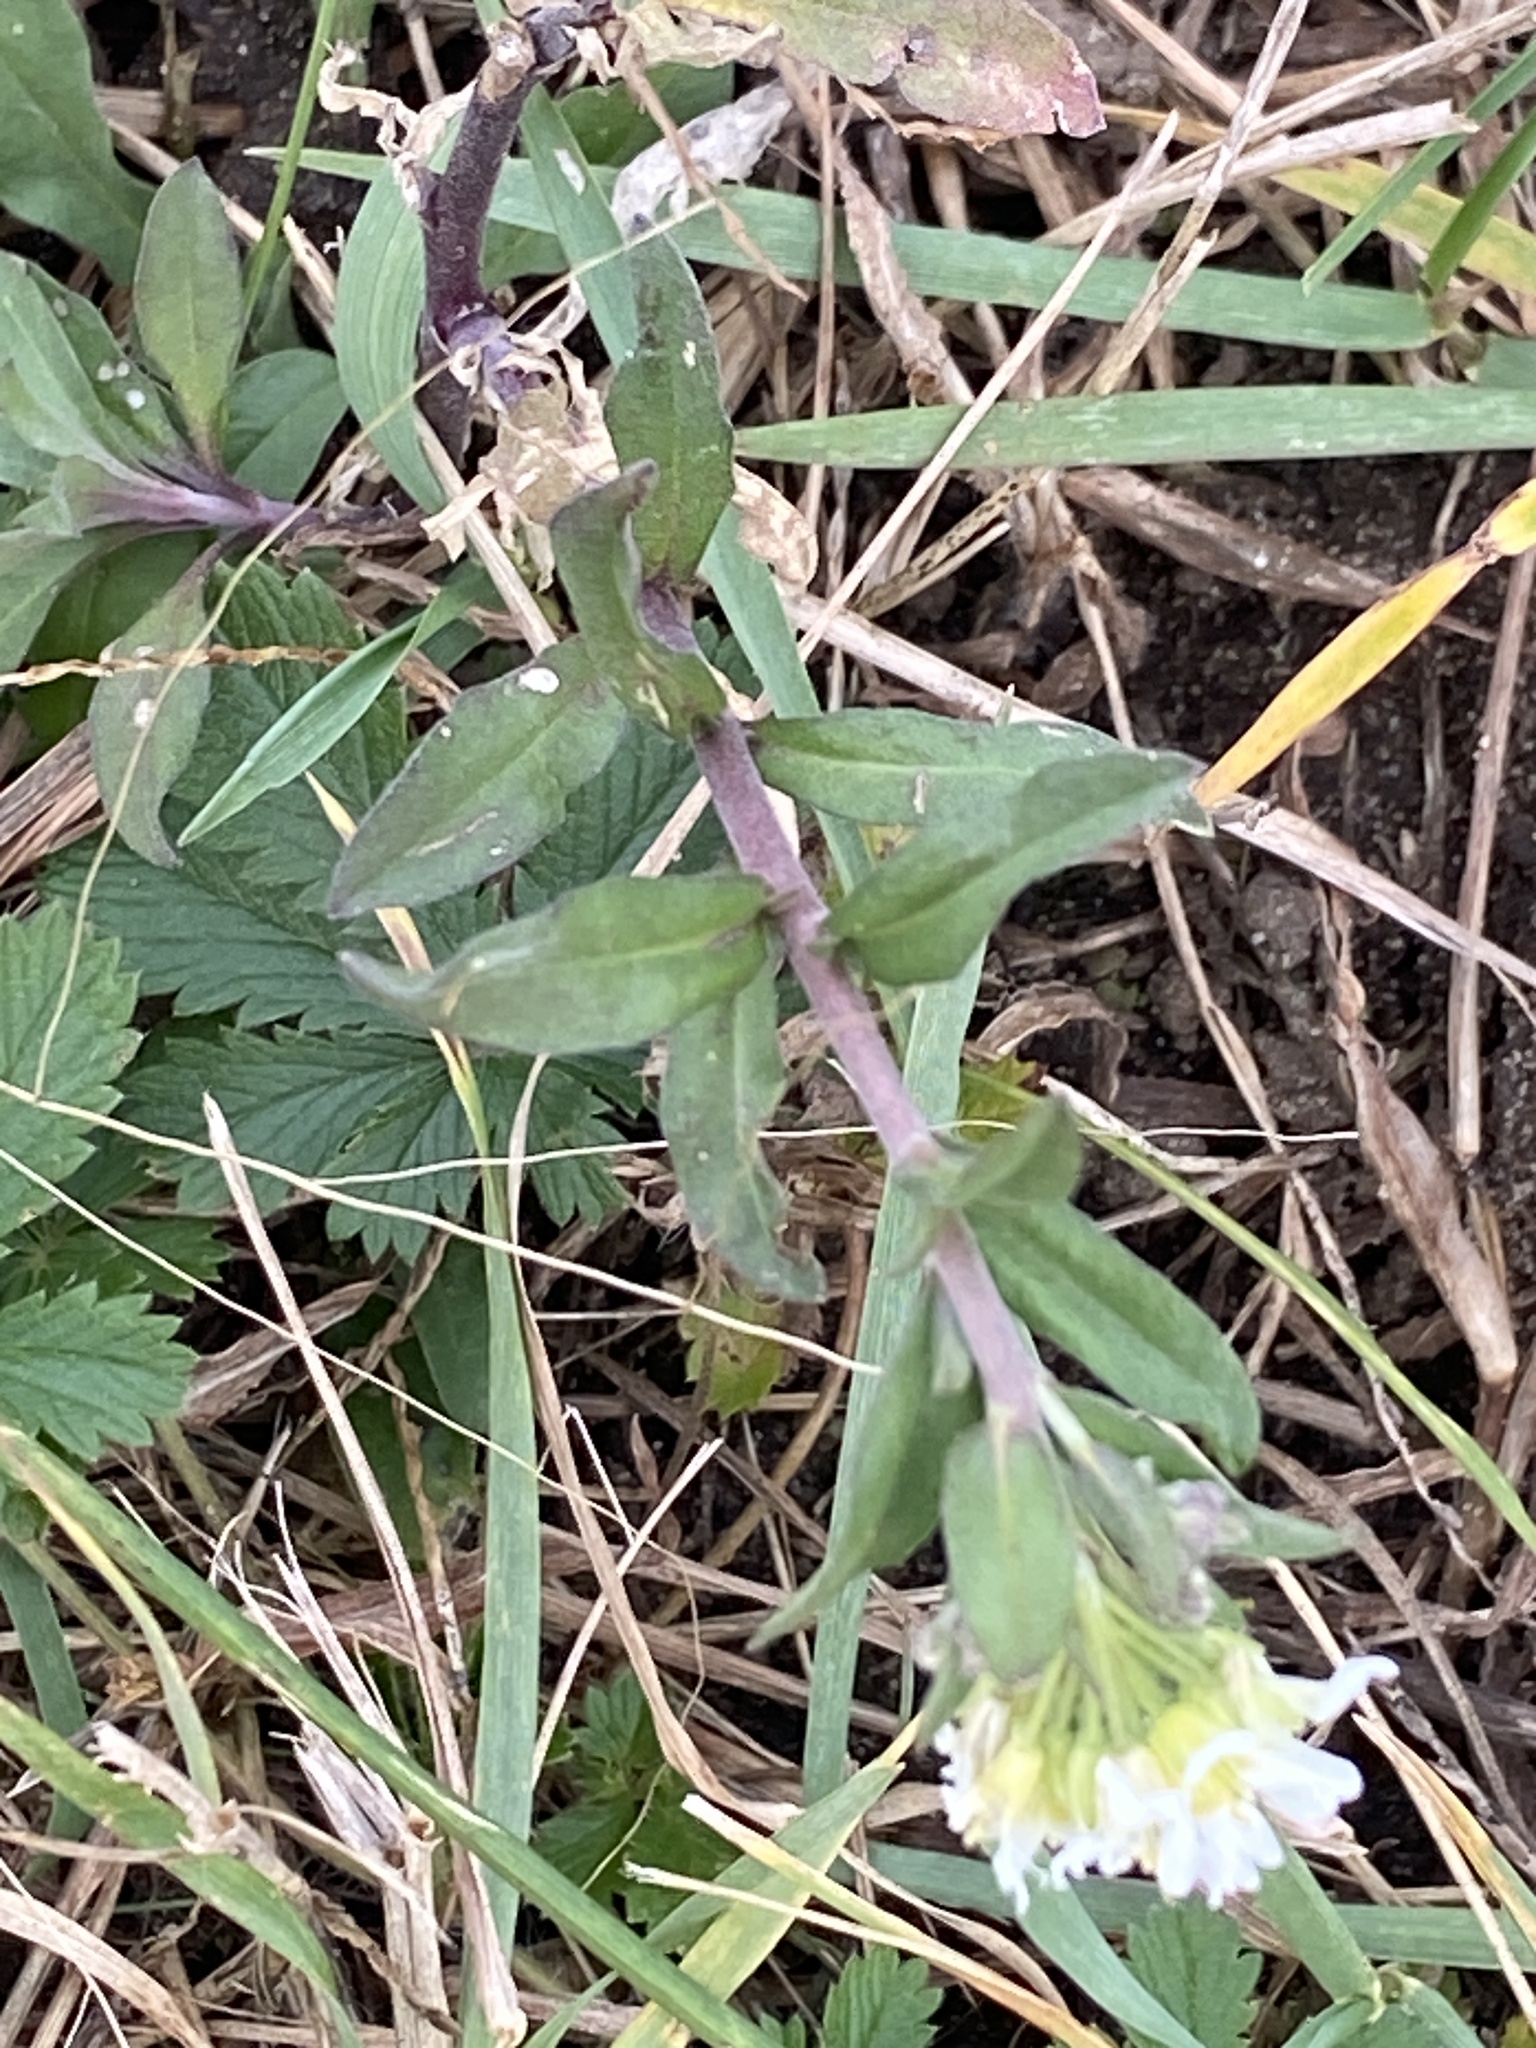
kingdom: Plantae
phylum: Tracheophyta
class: Magnoliopsida
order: Brassicales
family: Brassicaceae
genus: Berteroa
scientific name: Berteroa incana
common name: Hoary alison
